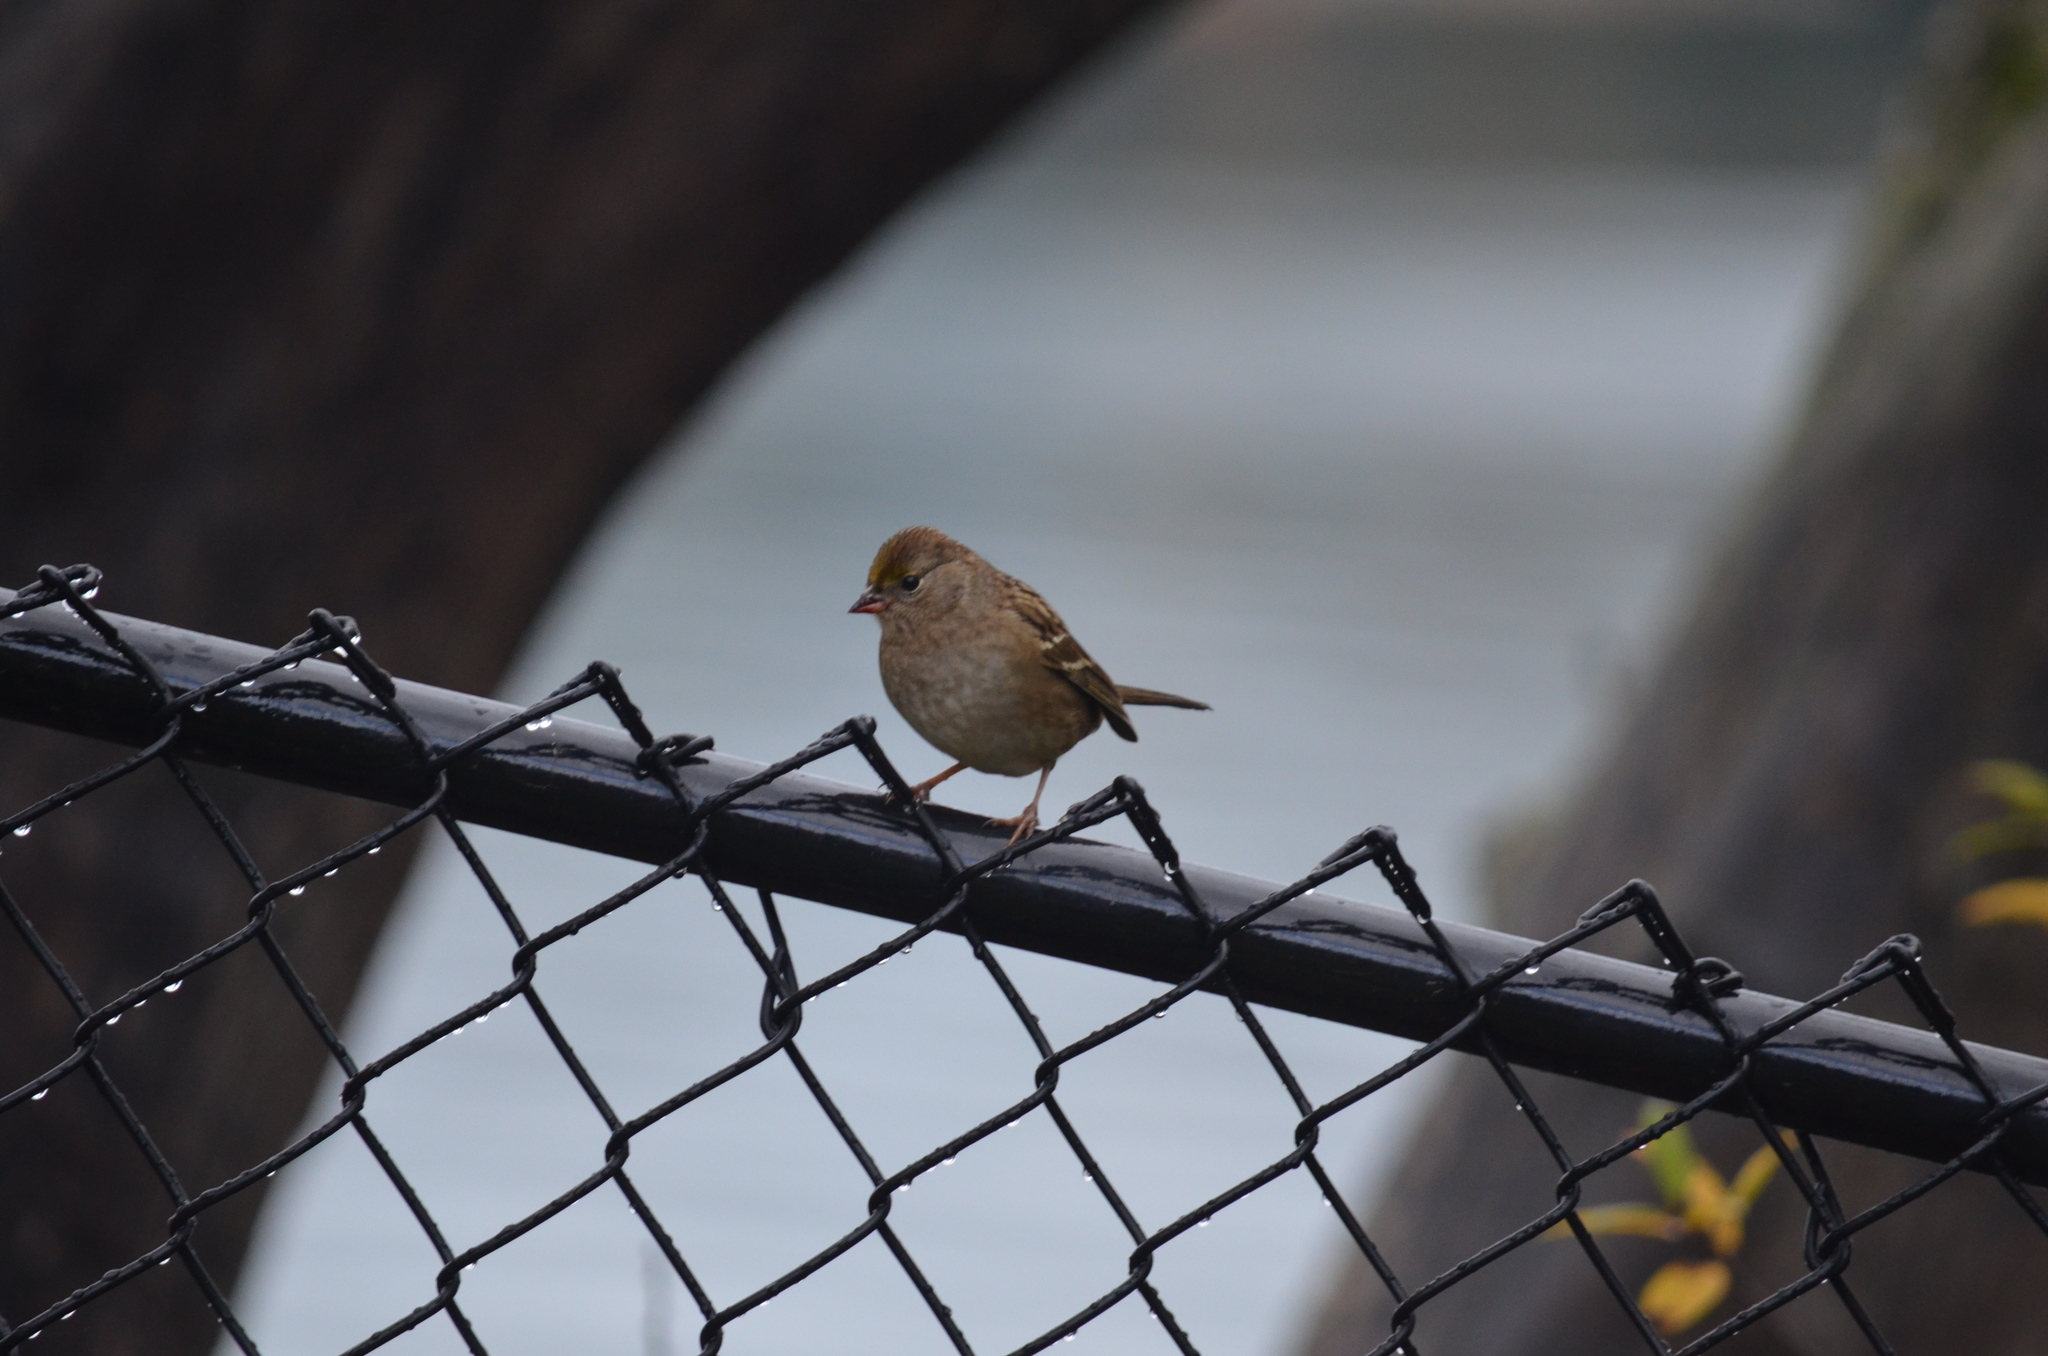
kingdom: Animalia
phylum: Chordata
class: Aves
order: Passeriformes
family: Passerellidae
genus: Zonotrichia
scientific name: Zonotrichia atricapilla
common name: Golden-crowned sparrow
